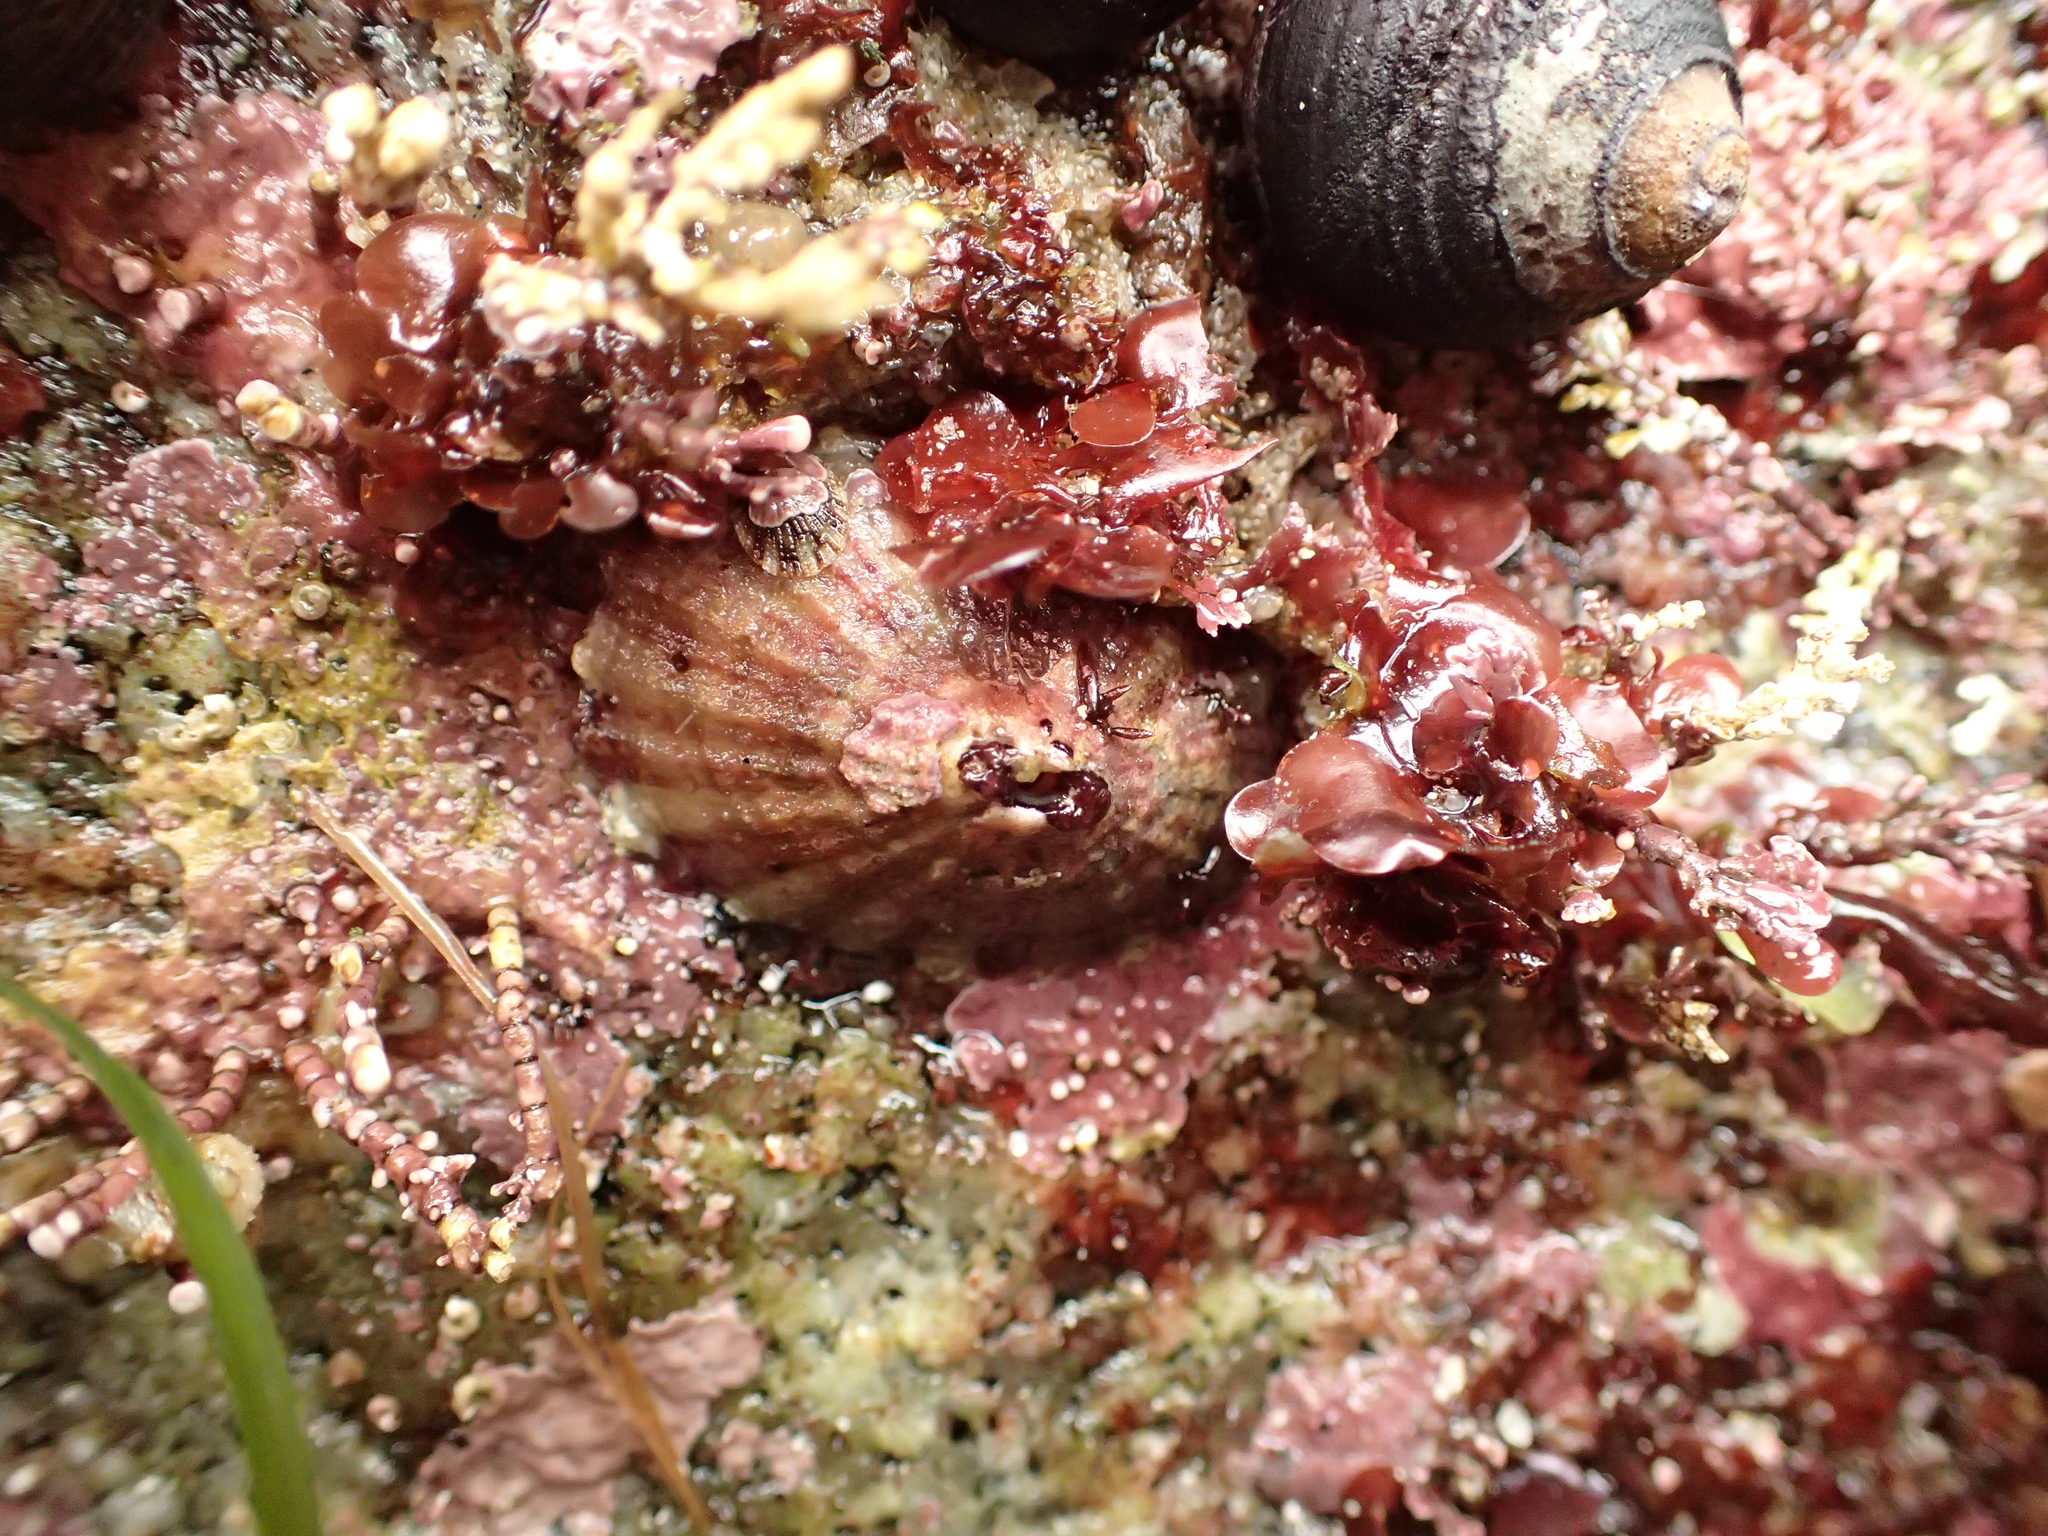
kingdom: Animalia
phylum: Mollusca
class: Gastropoda
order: Lepetellida
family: Fissurellidae
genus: Fissurella
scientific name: Fissurella volcano
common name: Volcano keyhole limpet
